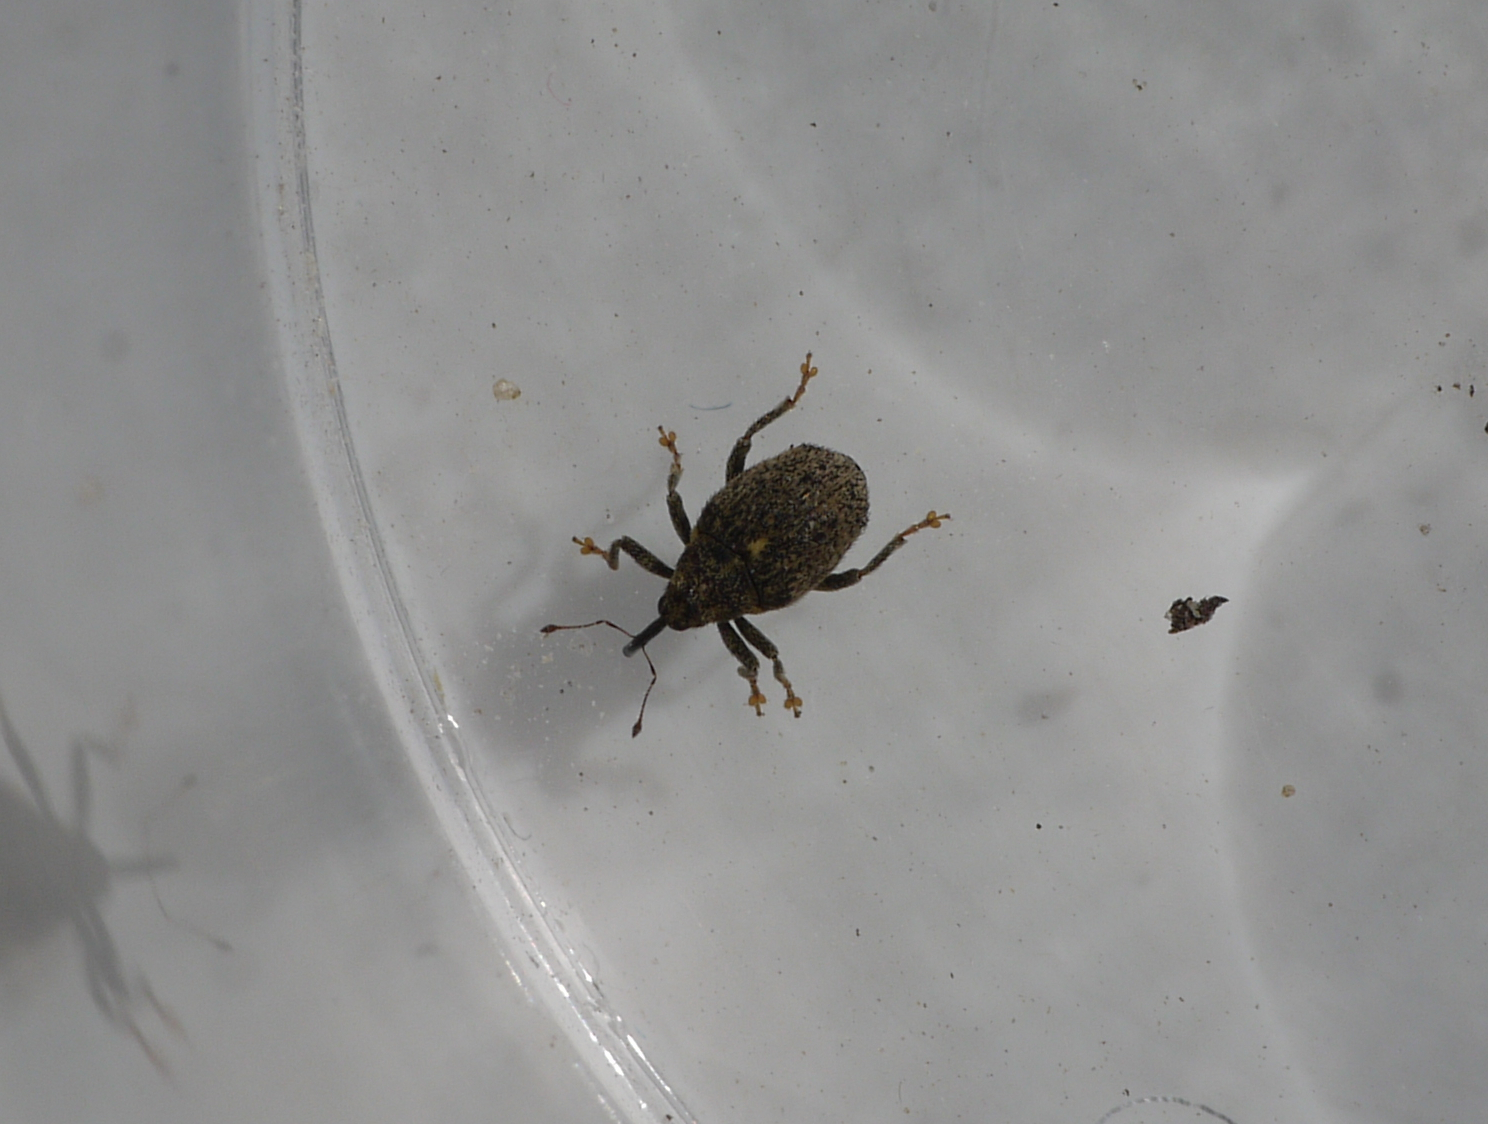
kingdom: Animalia
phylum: Arthropoda
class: Insecta
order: Coleoptera
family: Curculionidae
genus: Ceutorhynchus
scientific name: Ceutorhynchus pallidactylus
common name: Cabbage stem weavil
